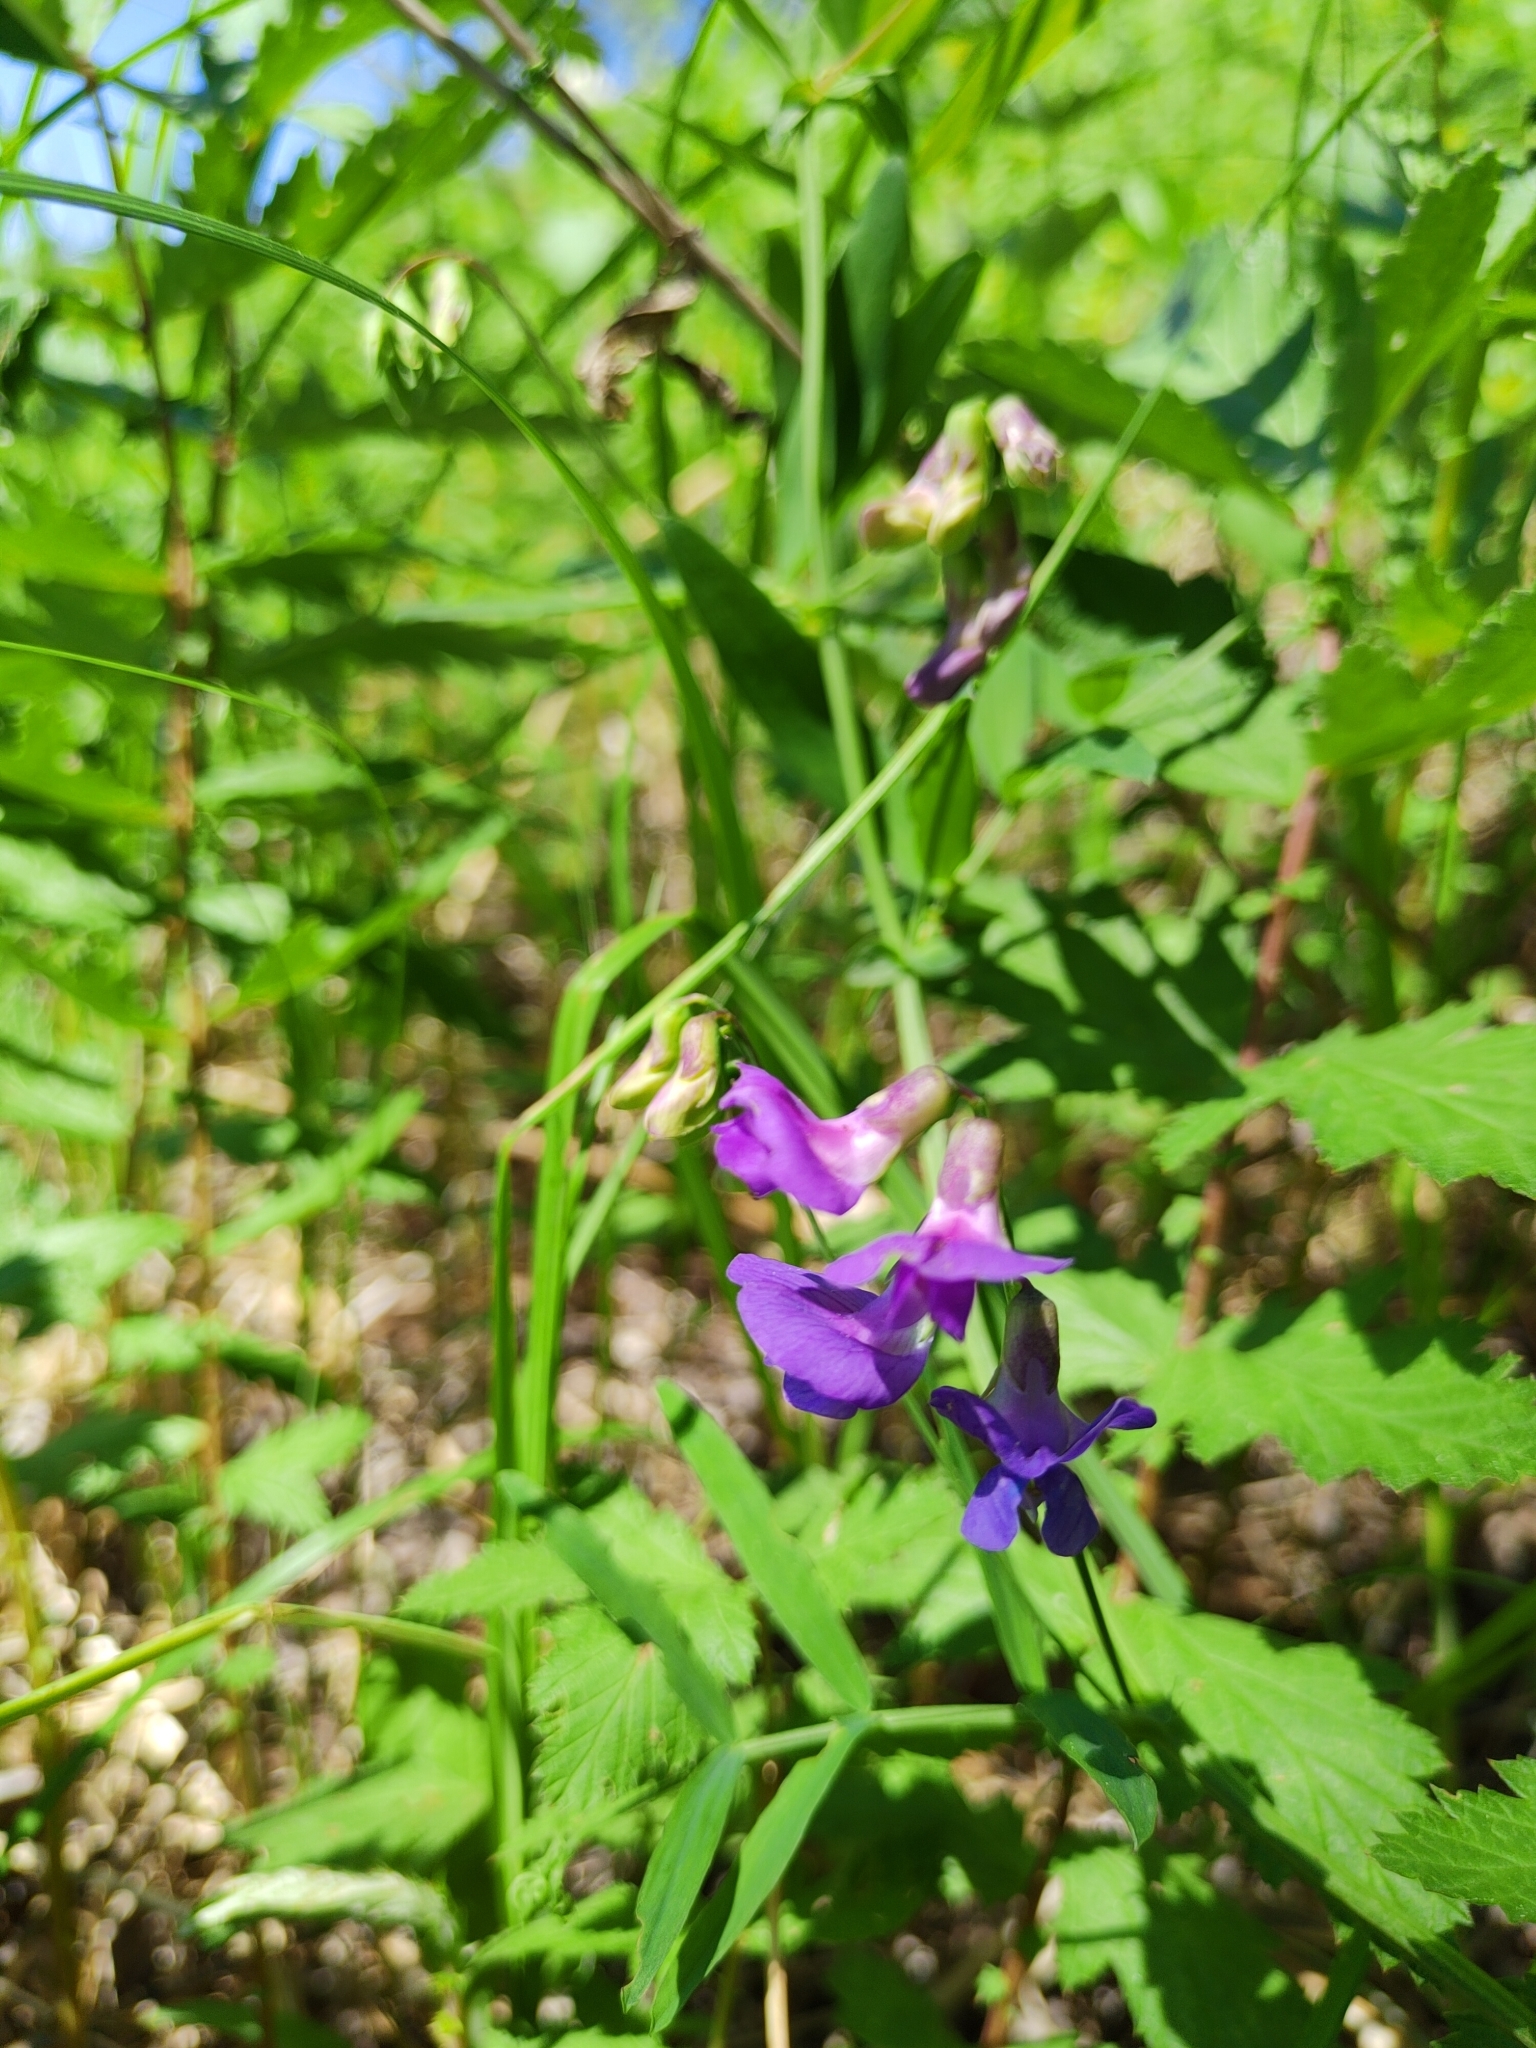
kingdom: Plantae
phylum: Tracheophyta
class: Magnoliopsida
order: Fabales
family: Fabaceae
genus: Lathyrus
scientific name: Lathyrus palustris
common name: Marsh pea
